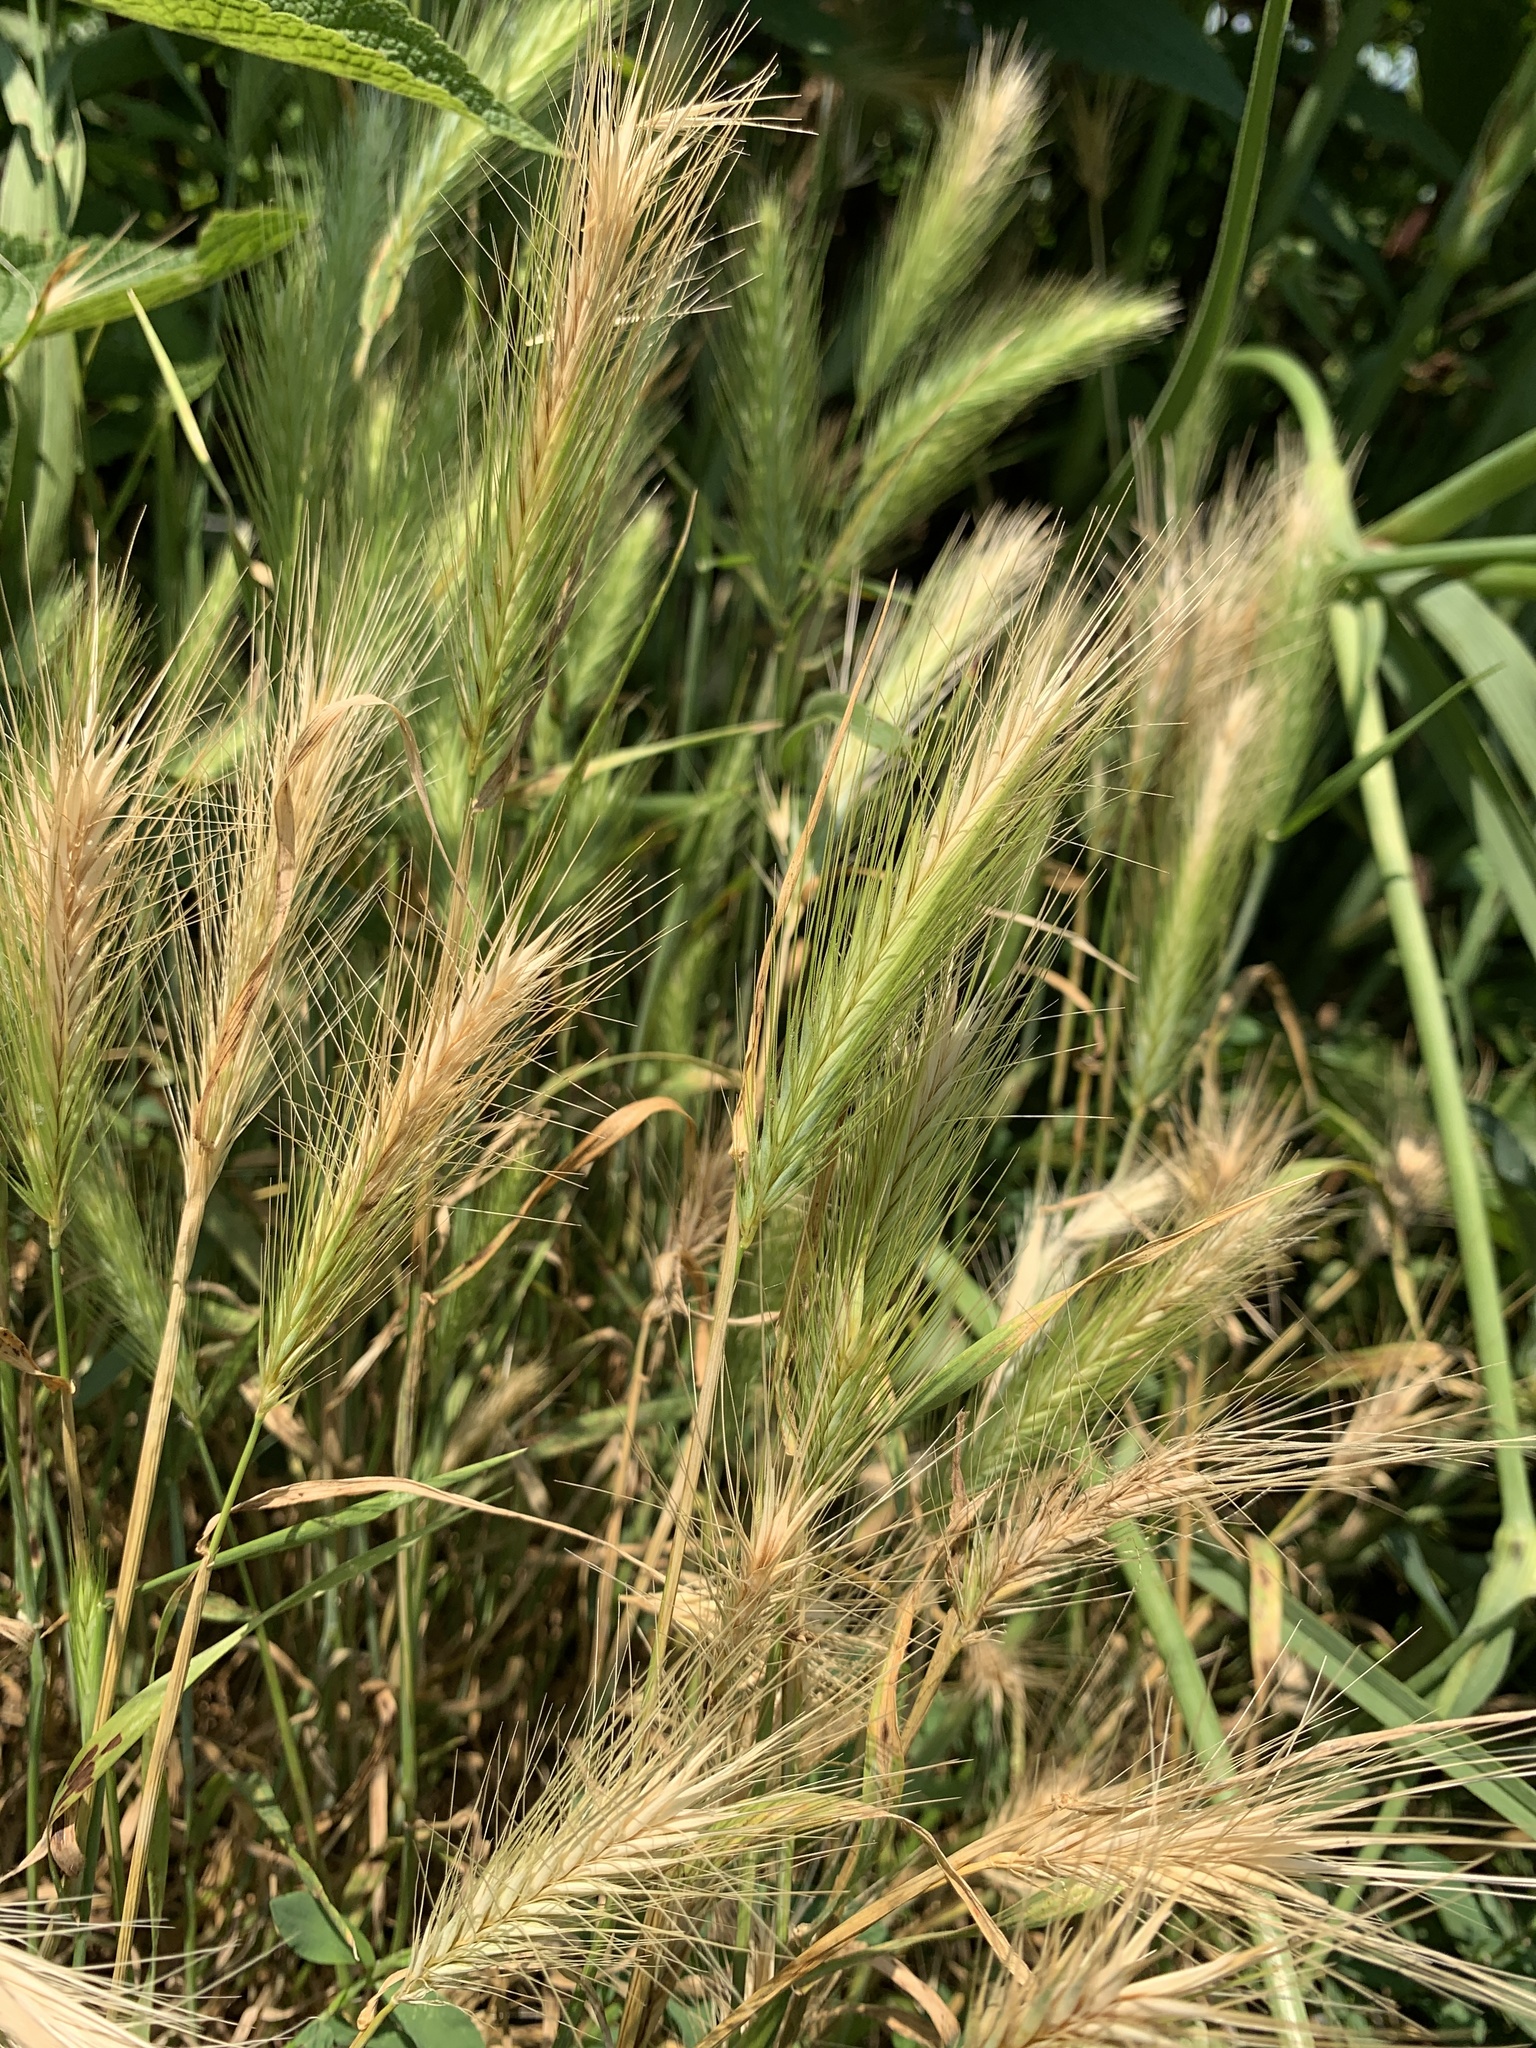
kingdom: Plantae
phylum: Tracheophyta
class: Liliopsida
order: Poales
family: Poaceae
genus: Hordeum
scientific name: Hordeum murinum
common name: Wall barley
